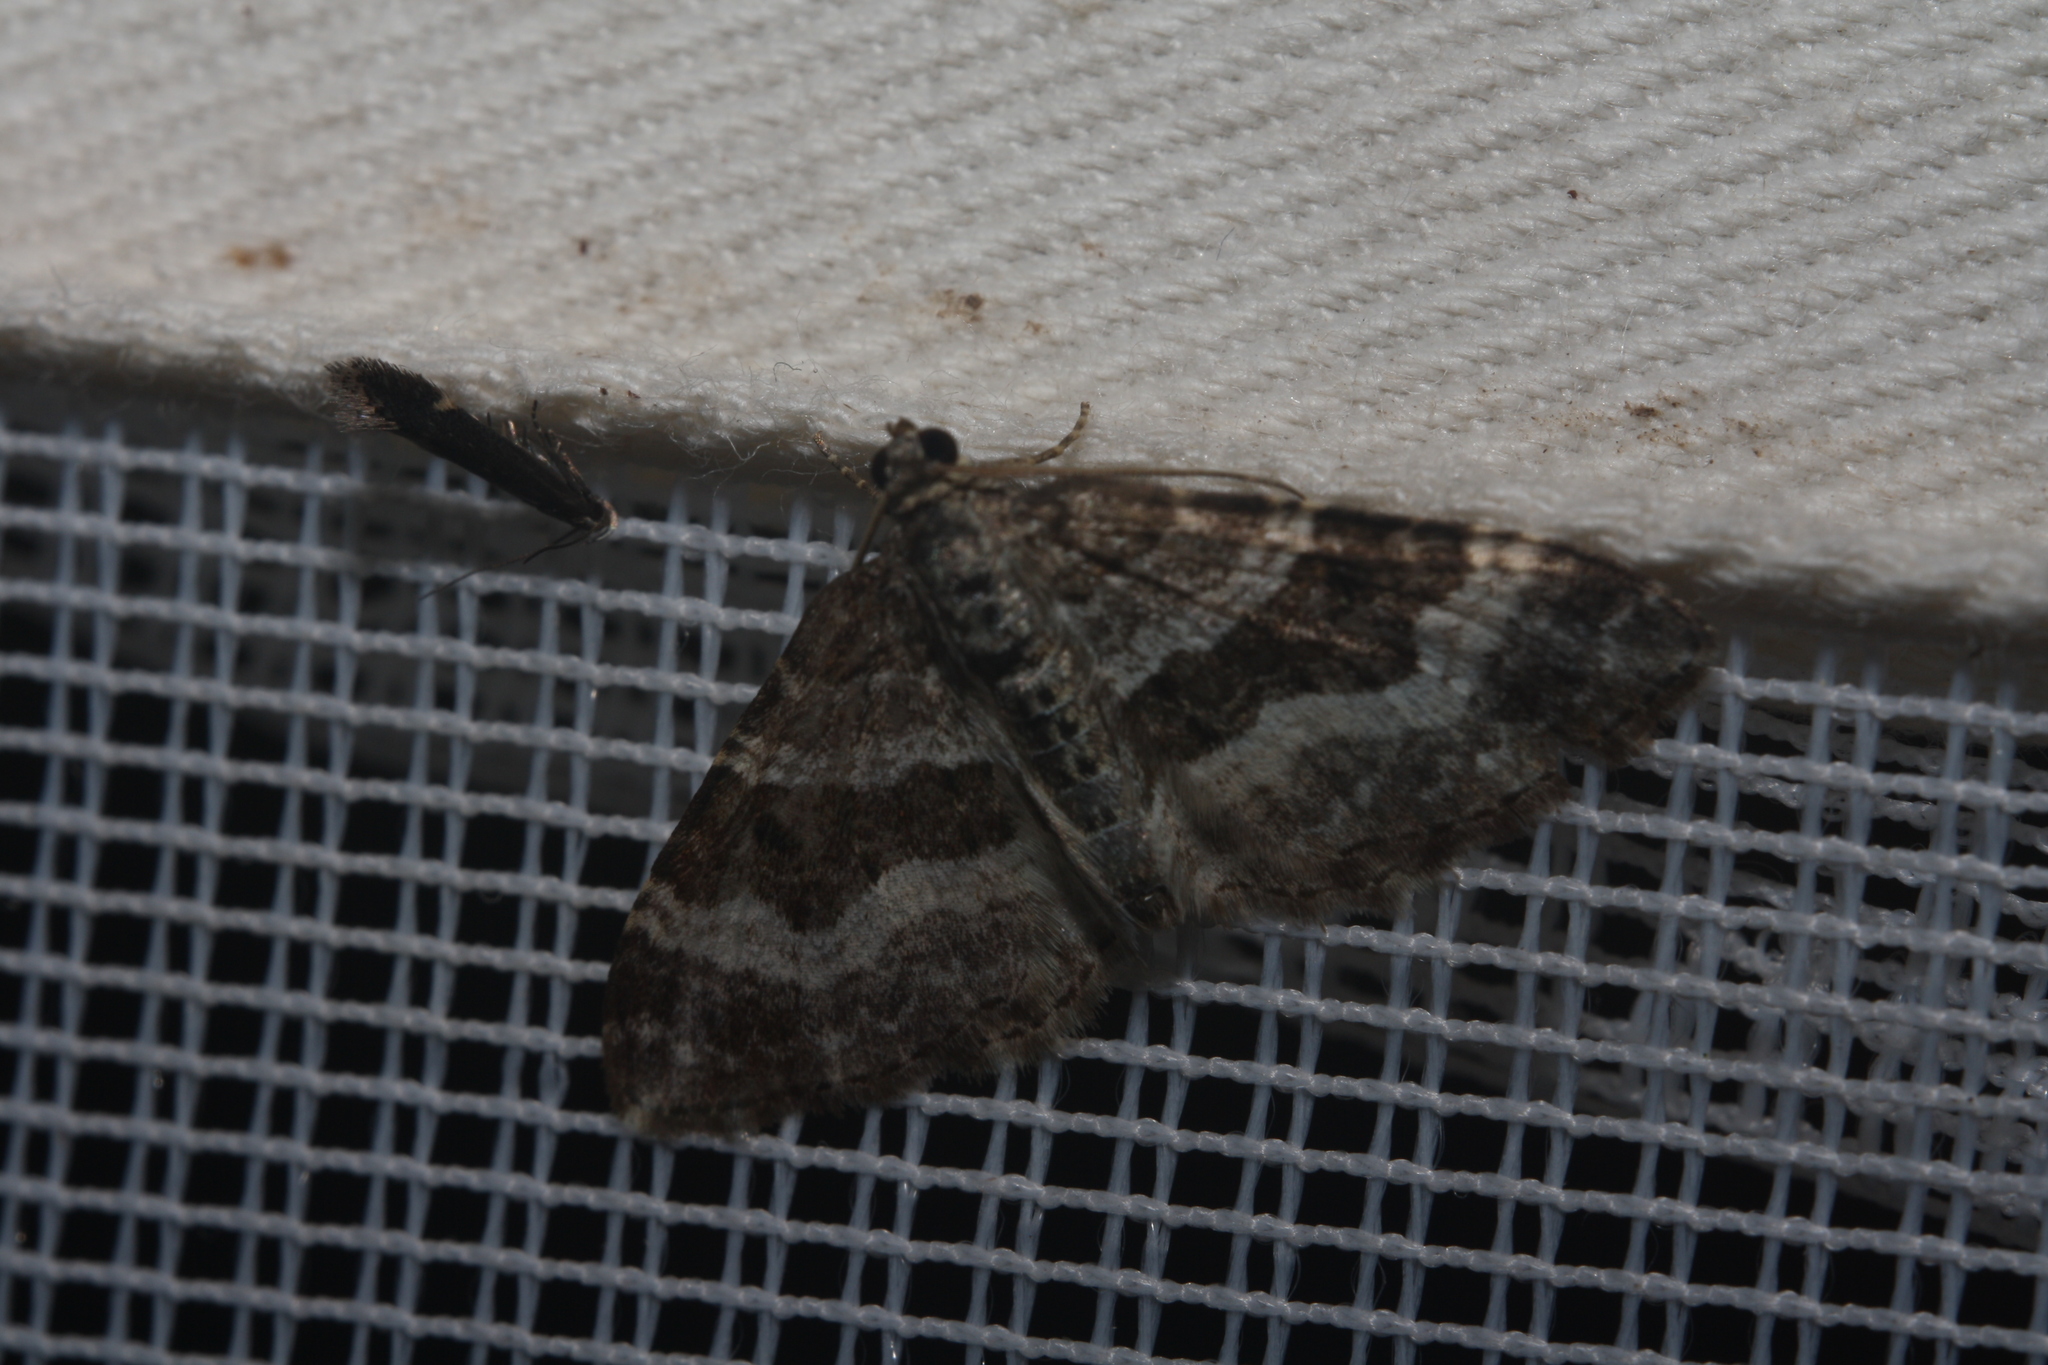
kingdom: Animalia
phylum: Arthropoda
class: Insecta
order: Lepidoptera
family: Geometridae
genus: Epirrhoe
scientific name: Epirrhoe alternata
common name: Common carpet
